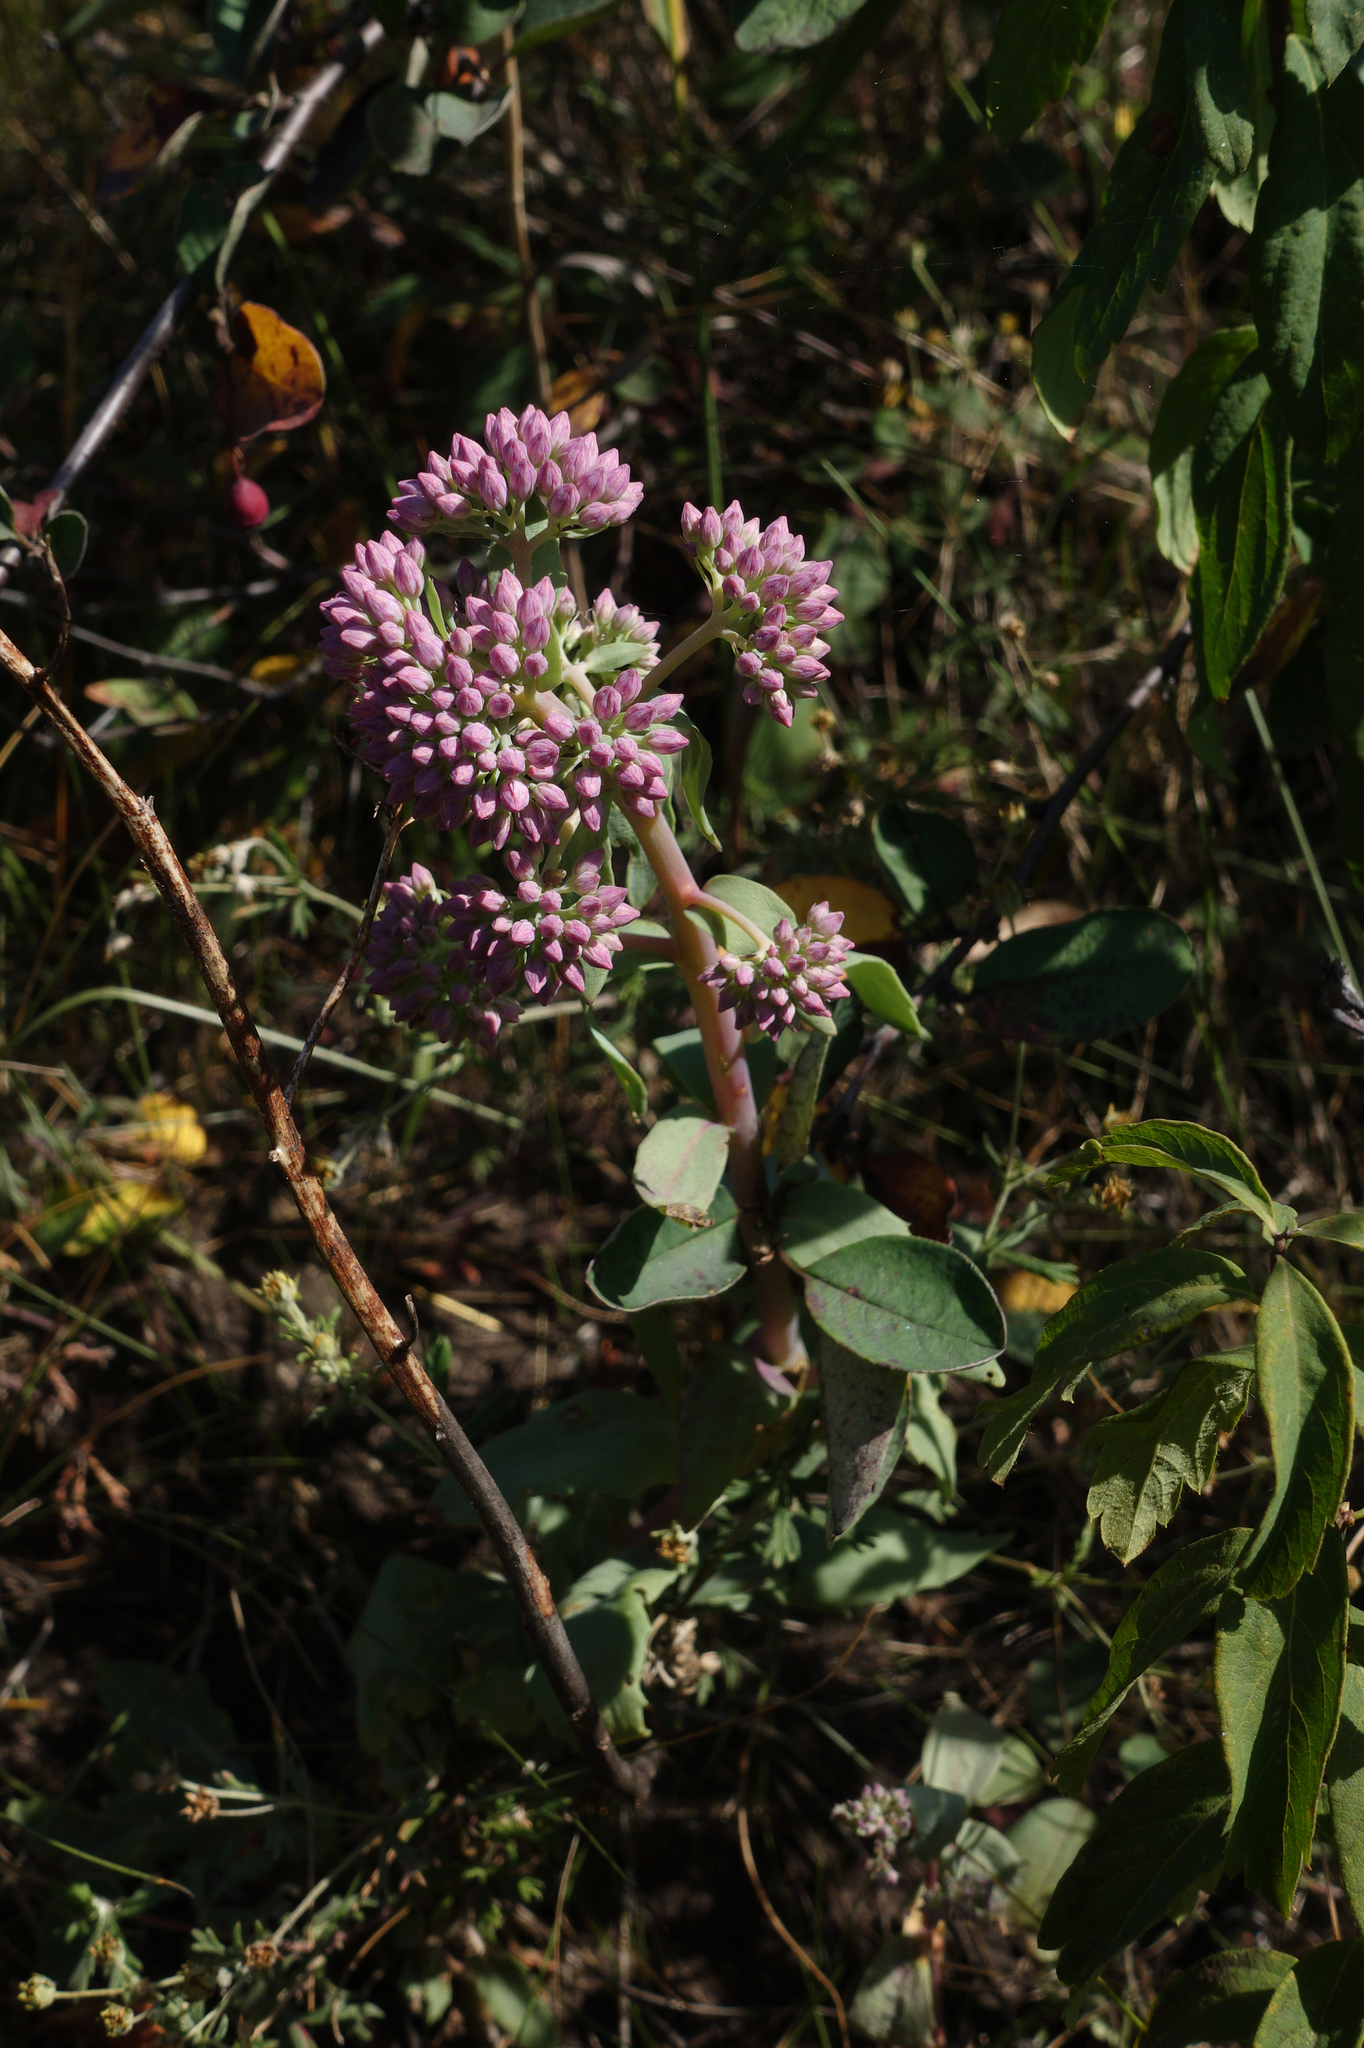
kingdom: Plantae
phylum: Tracheophyta
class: Magnoliopsida
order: Saxifragales
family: Crassulaceae
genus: Hylotelephium
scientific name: Hylotelephium telephium
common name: Live-forever
